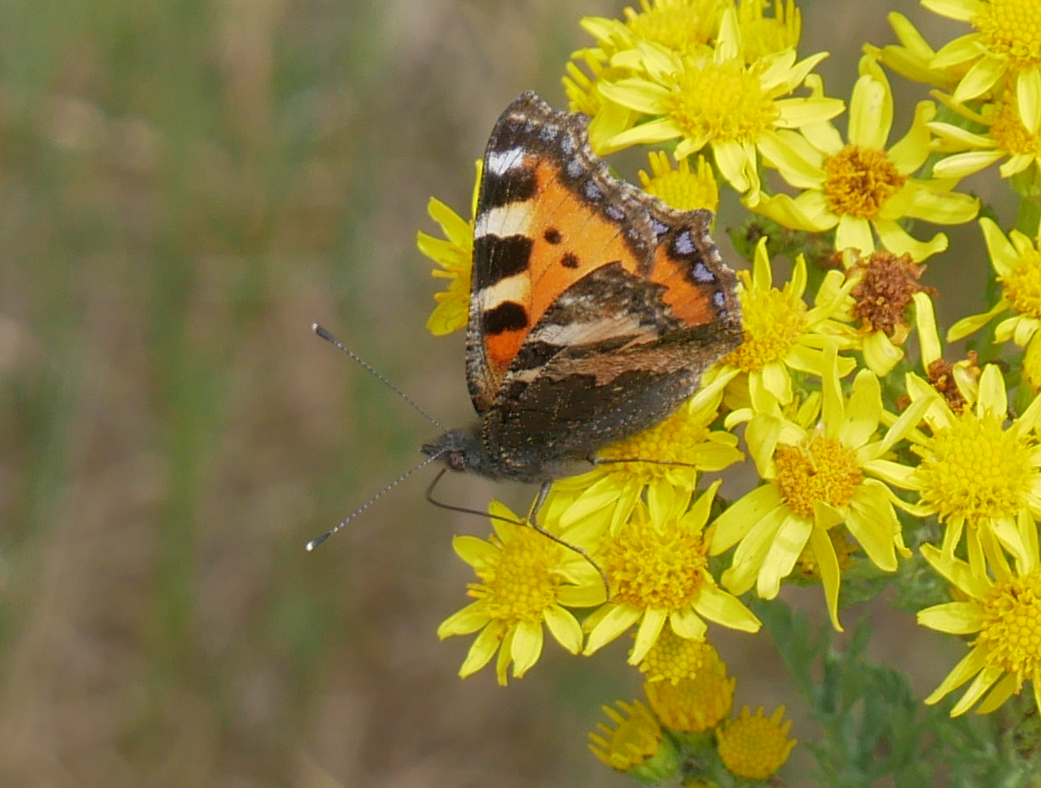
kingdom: Animalia
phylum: Arthropoda
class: Insecta
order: Lepidoptera
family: Nymphalidae
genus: Aglais
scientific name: Aglais urticae
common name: Small tortoiseshell
